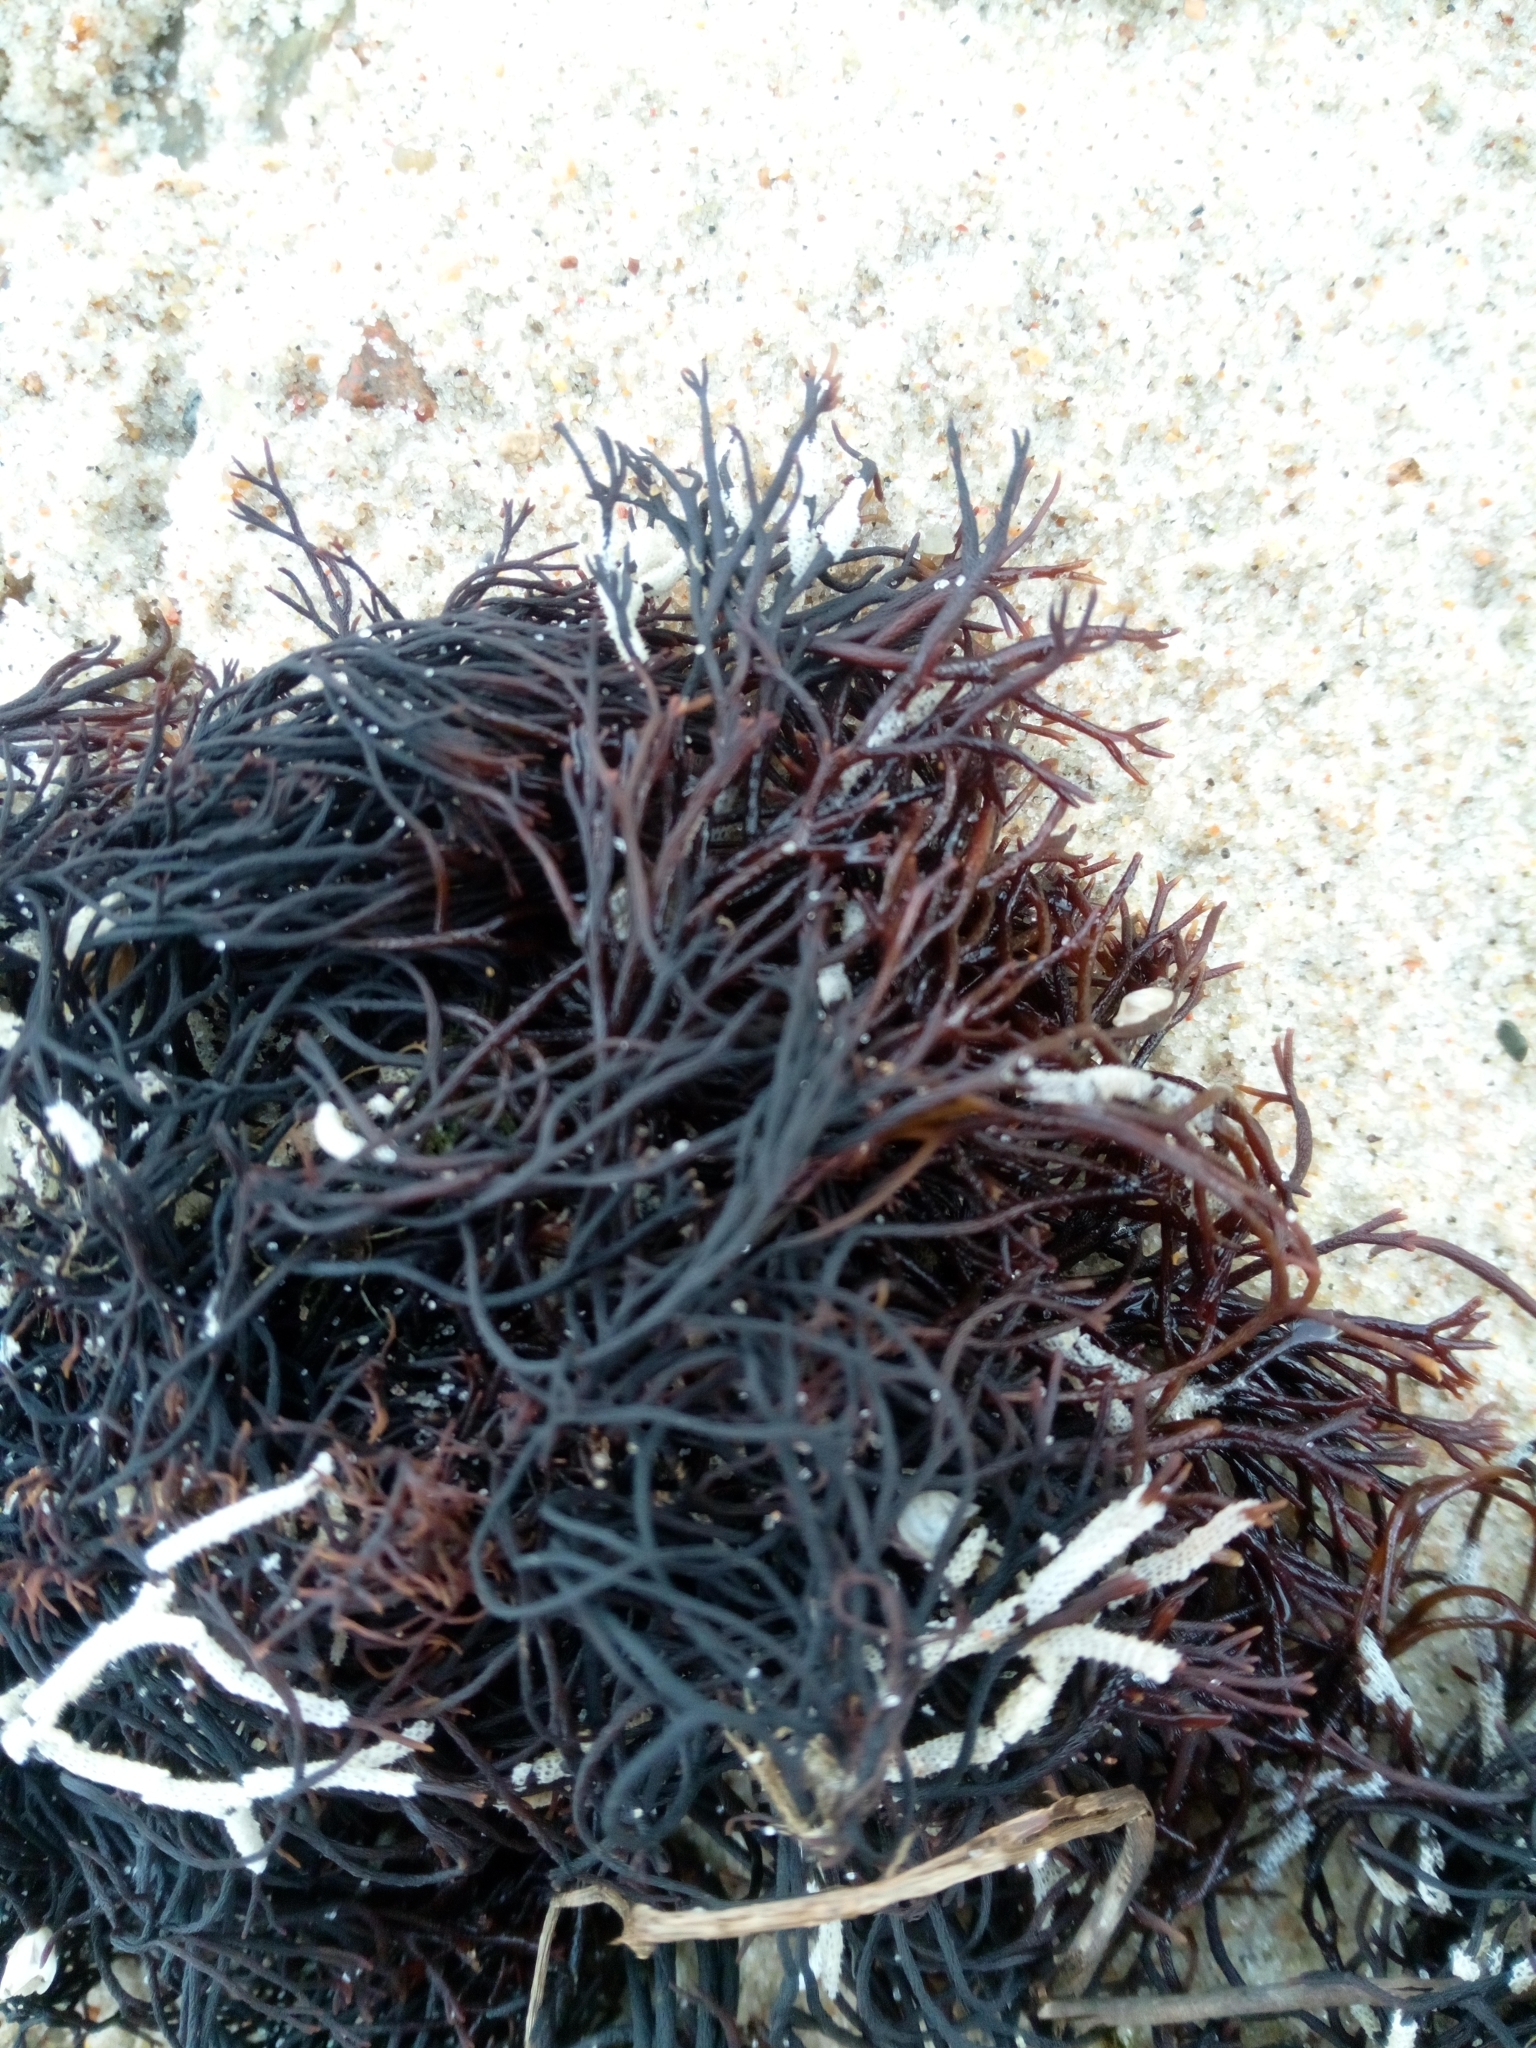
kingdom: Plantae
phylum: Rhodophyta
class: Florideophyceae
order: Gigartinales
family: Furcellariaceae
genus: Furcellaria
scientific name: Furcellaria lumbricalis
